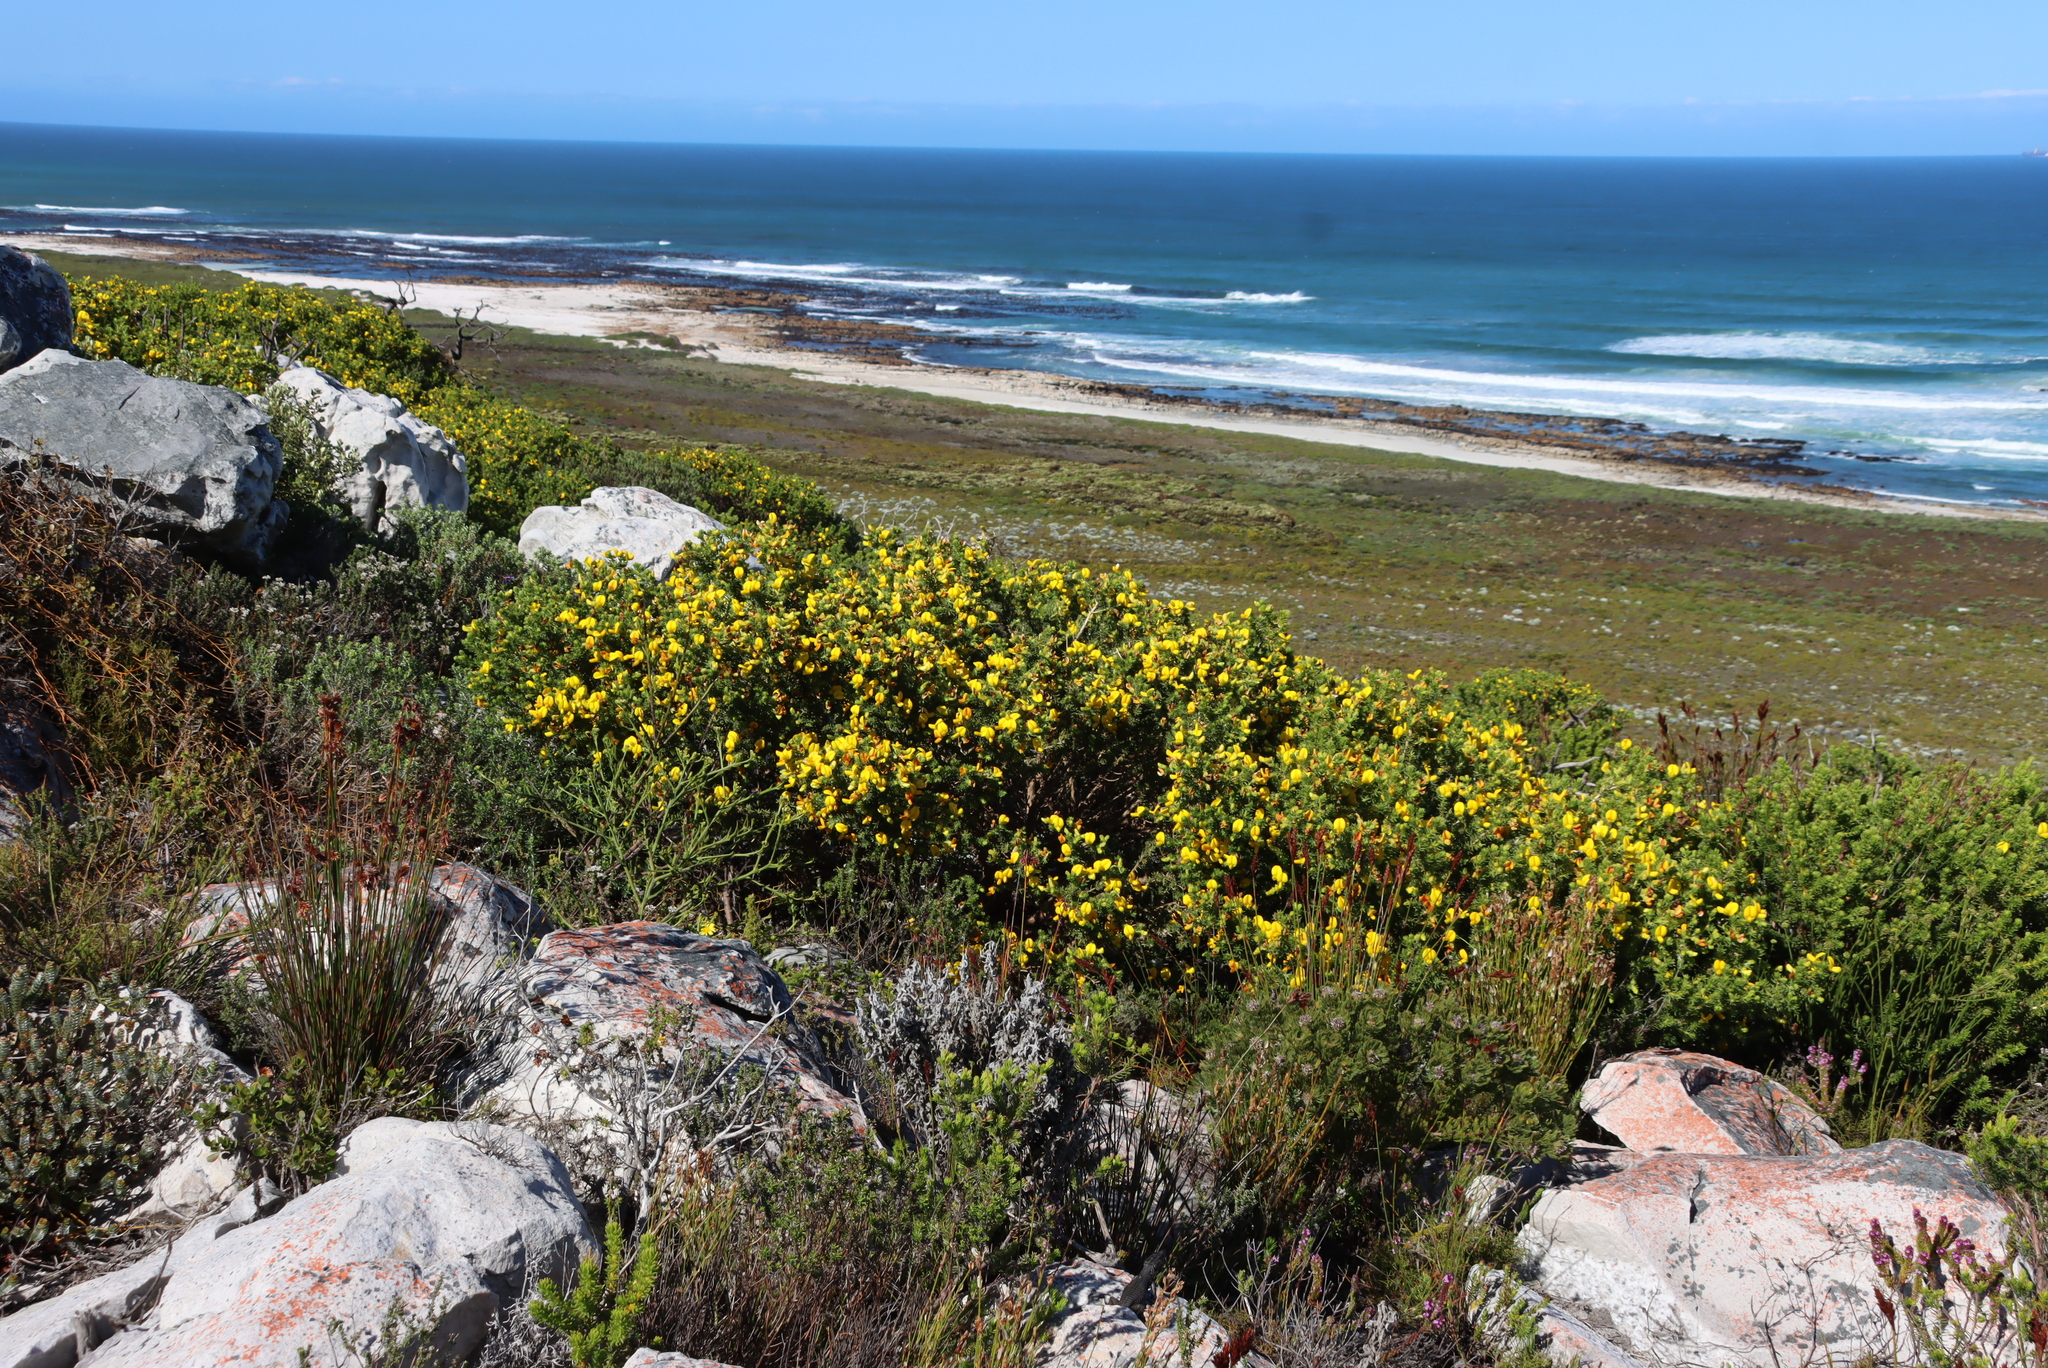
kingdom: Plantae
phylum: Tracheophyta
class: Magnoliopsida
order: Fabales
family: Fabaceae
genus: Aspalathus
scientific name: Aspalathus capensis
